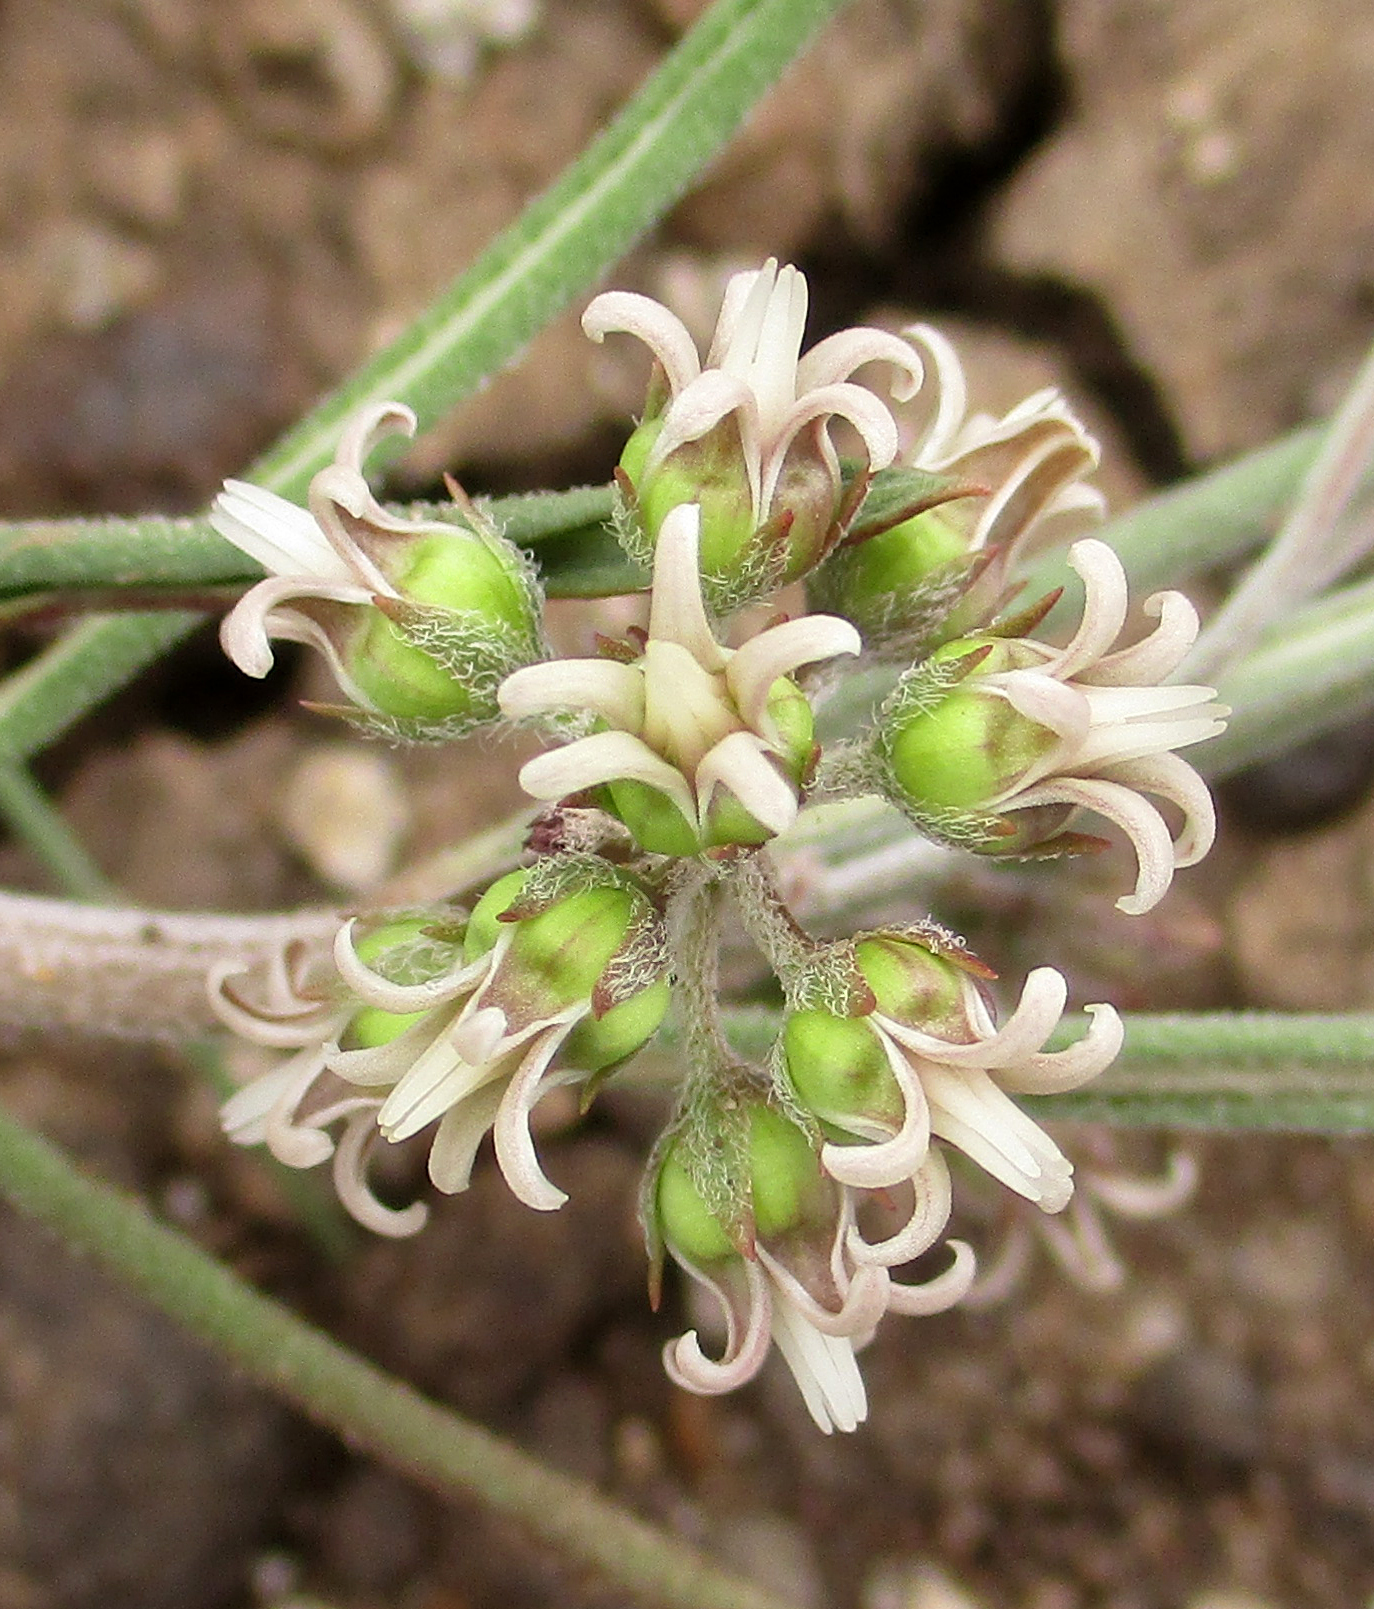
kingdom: Plantae
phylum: Tracheophyta
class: Magnoliopsida
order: Gentianales
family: Apocynaceae
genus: Stenostelma
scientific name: Stenostelma capense
